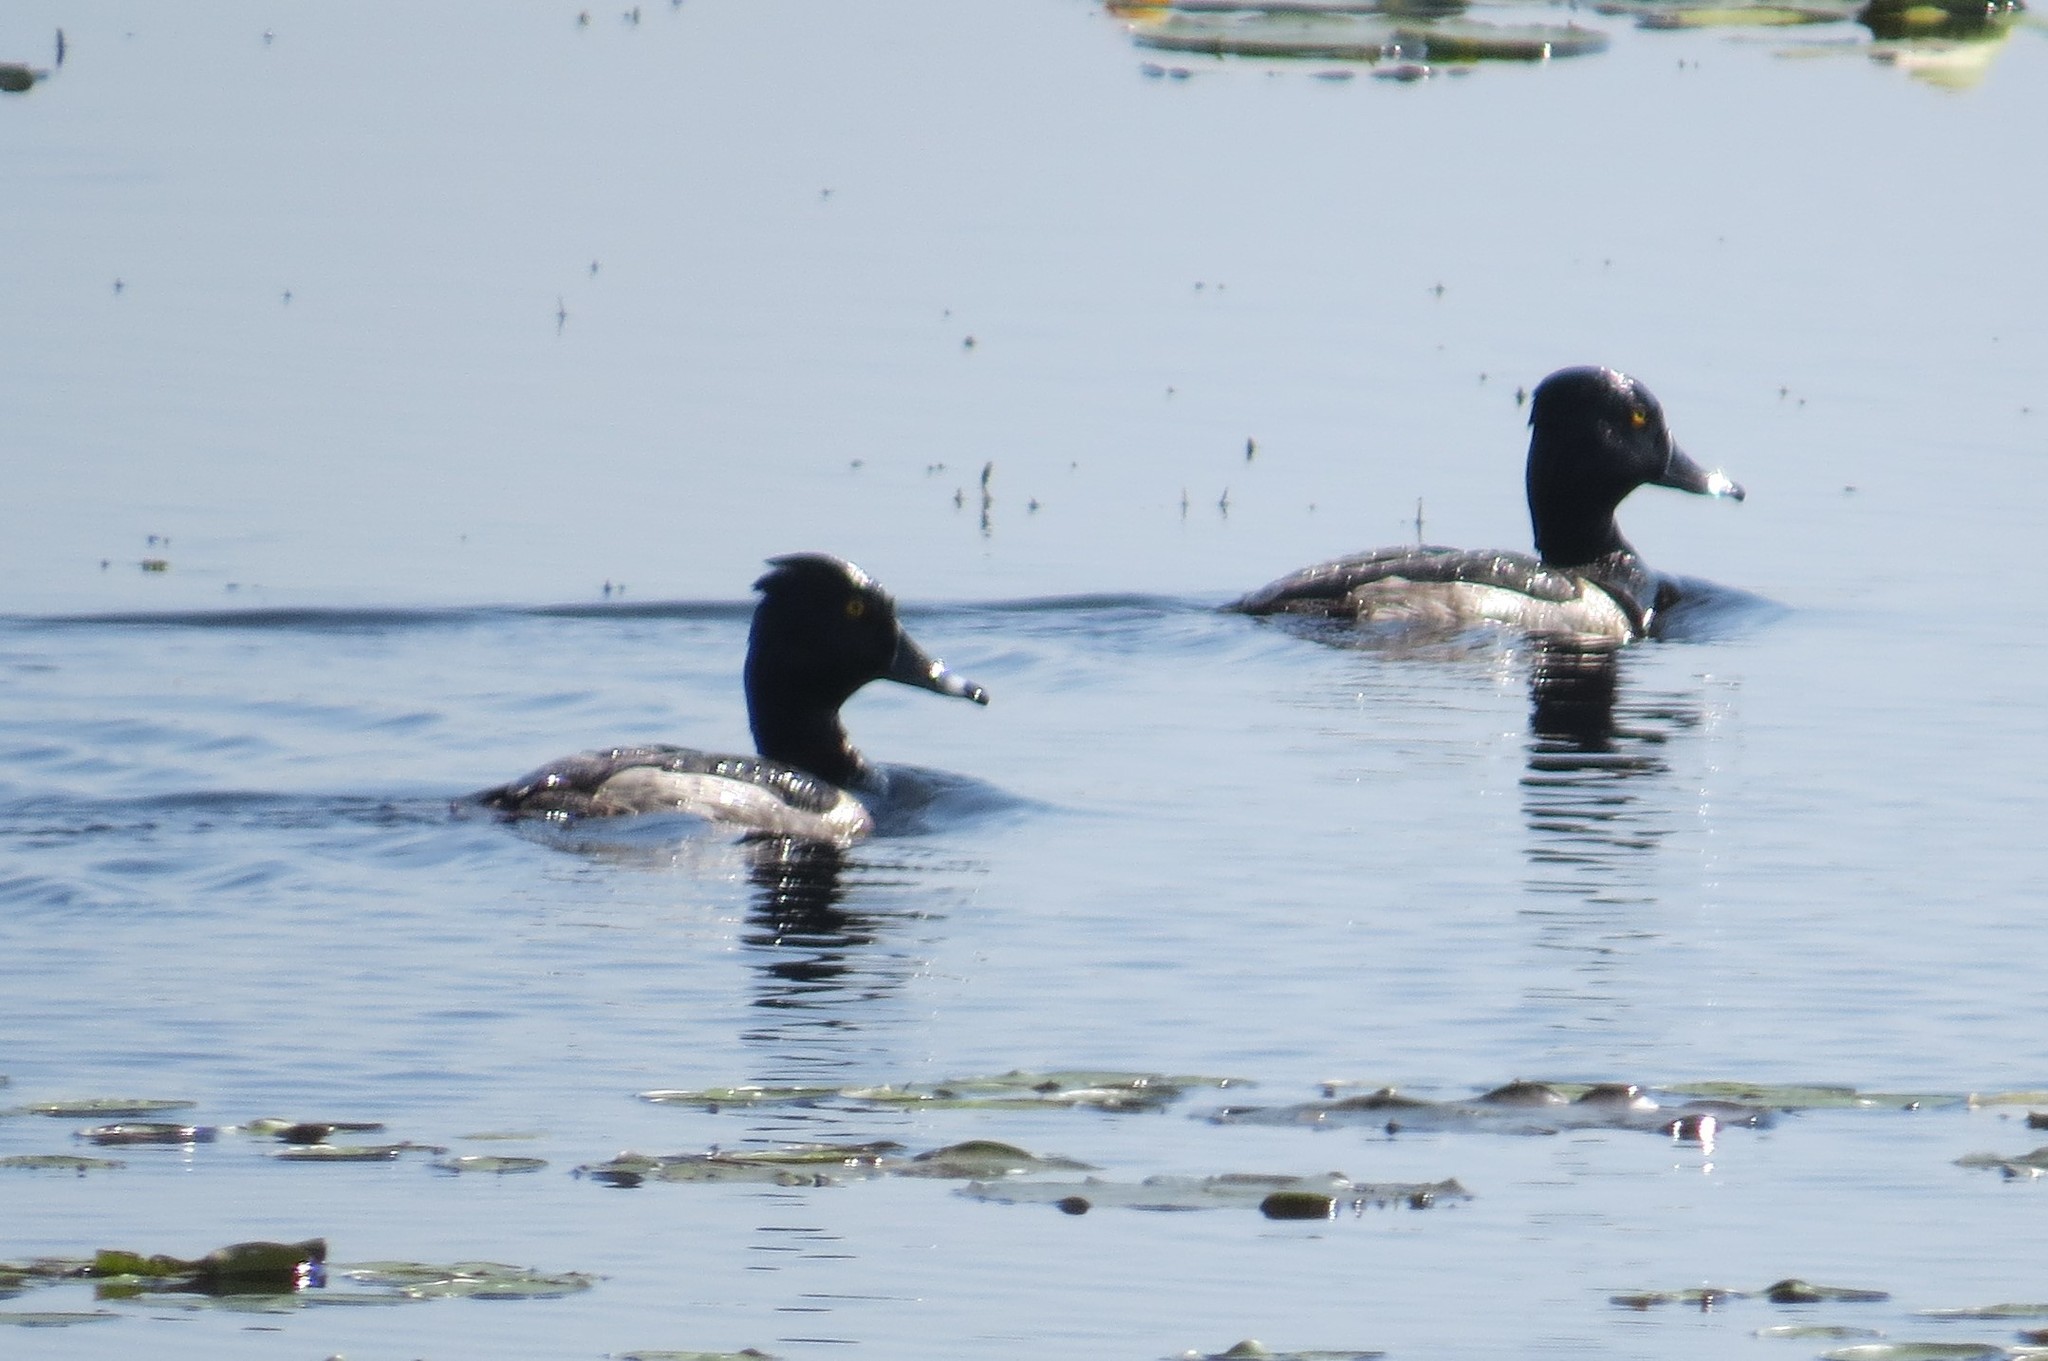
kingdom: Animalia
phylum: Chordata
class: Aves
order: Anseriformes
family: Anatidae
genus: Aythya
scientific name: Aythya collaris
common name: Ring-necked duck
